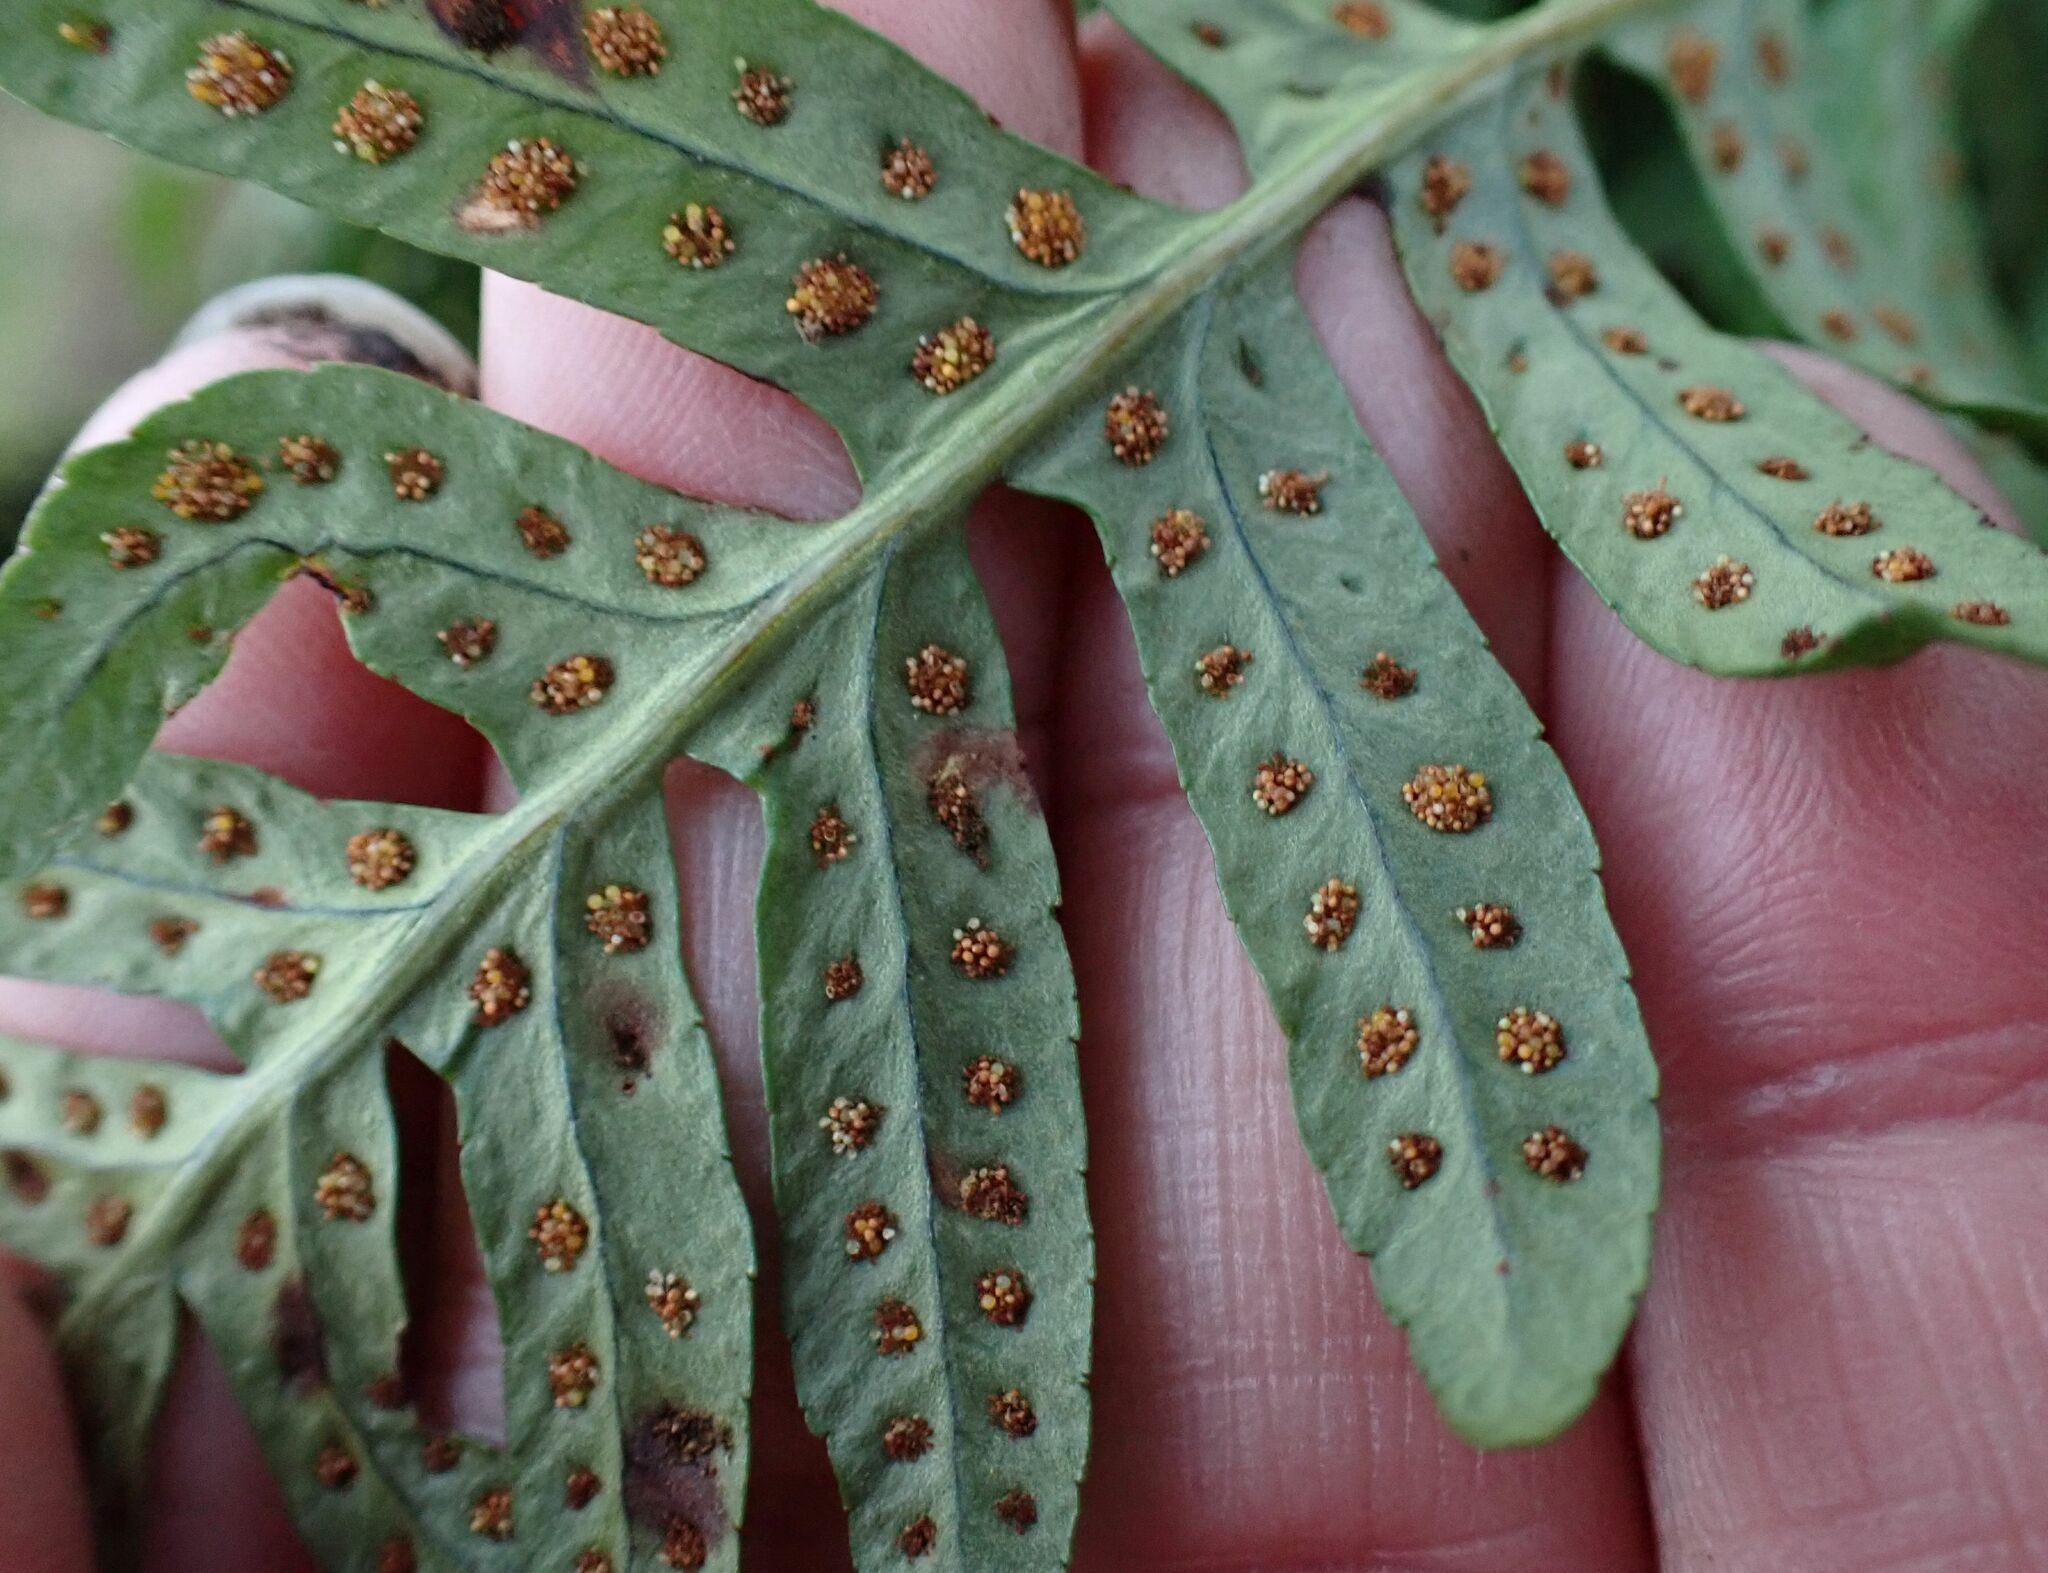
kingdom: Plantae
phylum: Tracheophyta
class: Polypodiopsida
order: Polypodiales
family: Polypodiaceae
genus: Polypodium
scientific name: Polypodium
